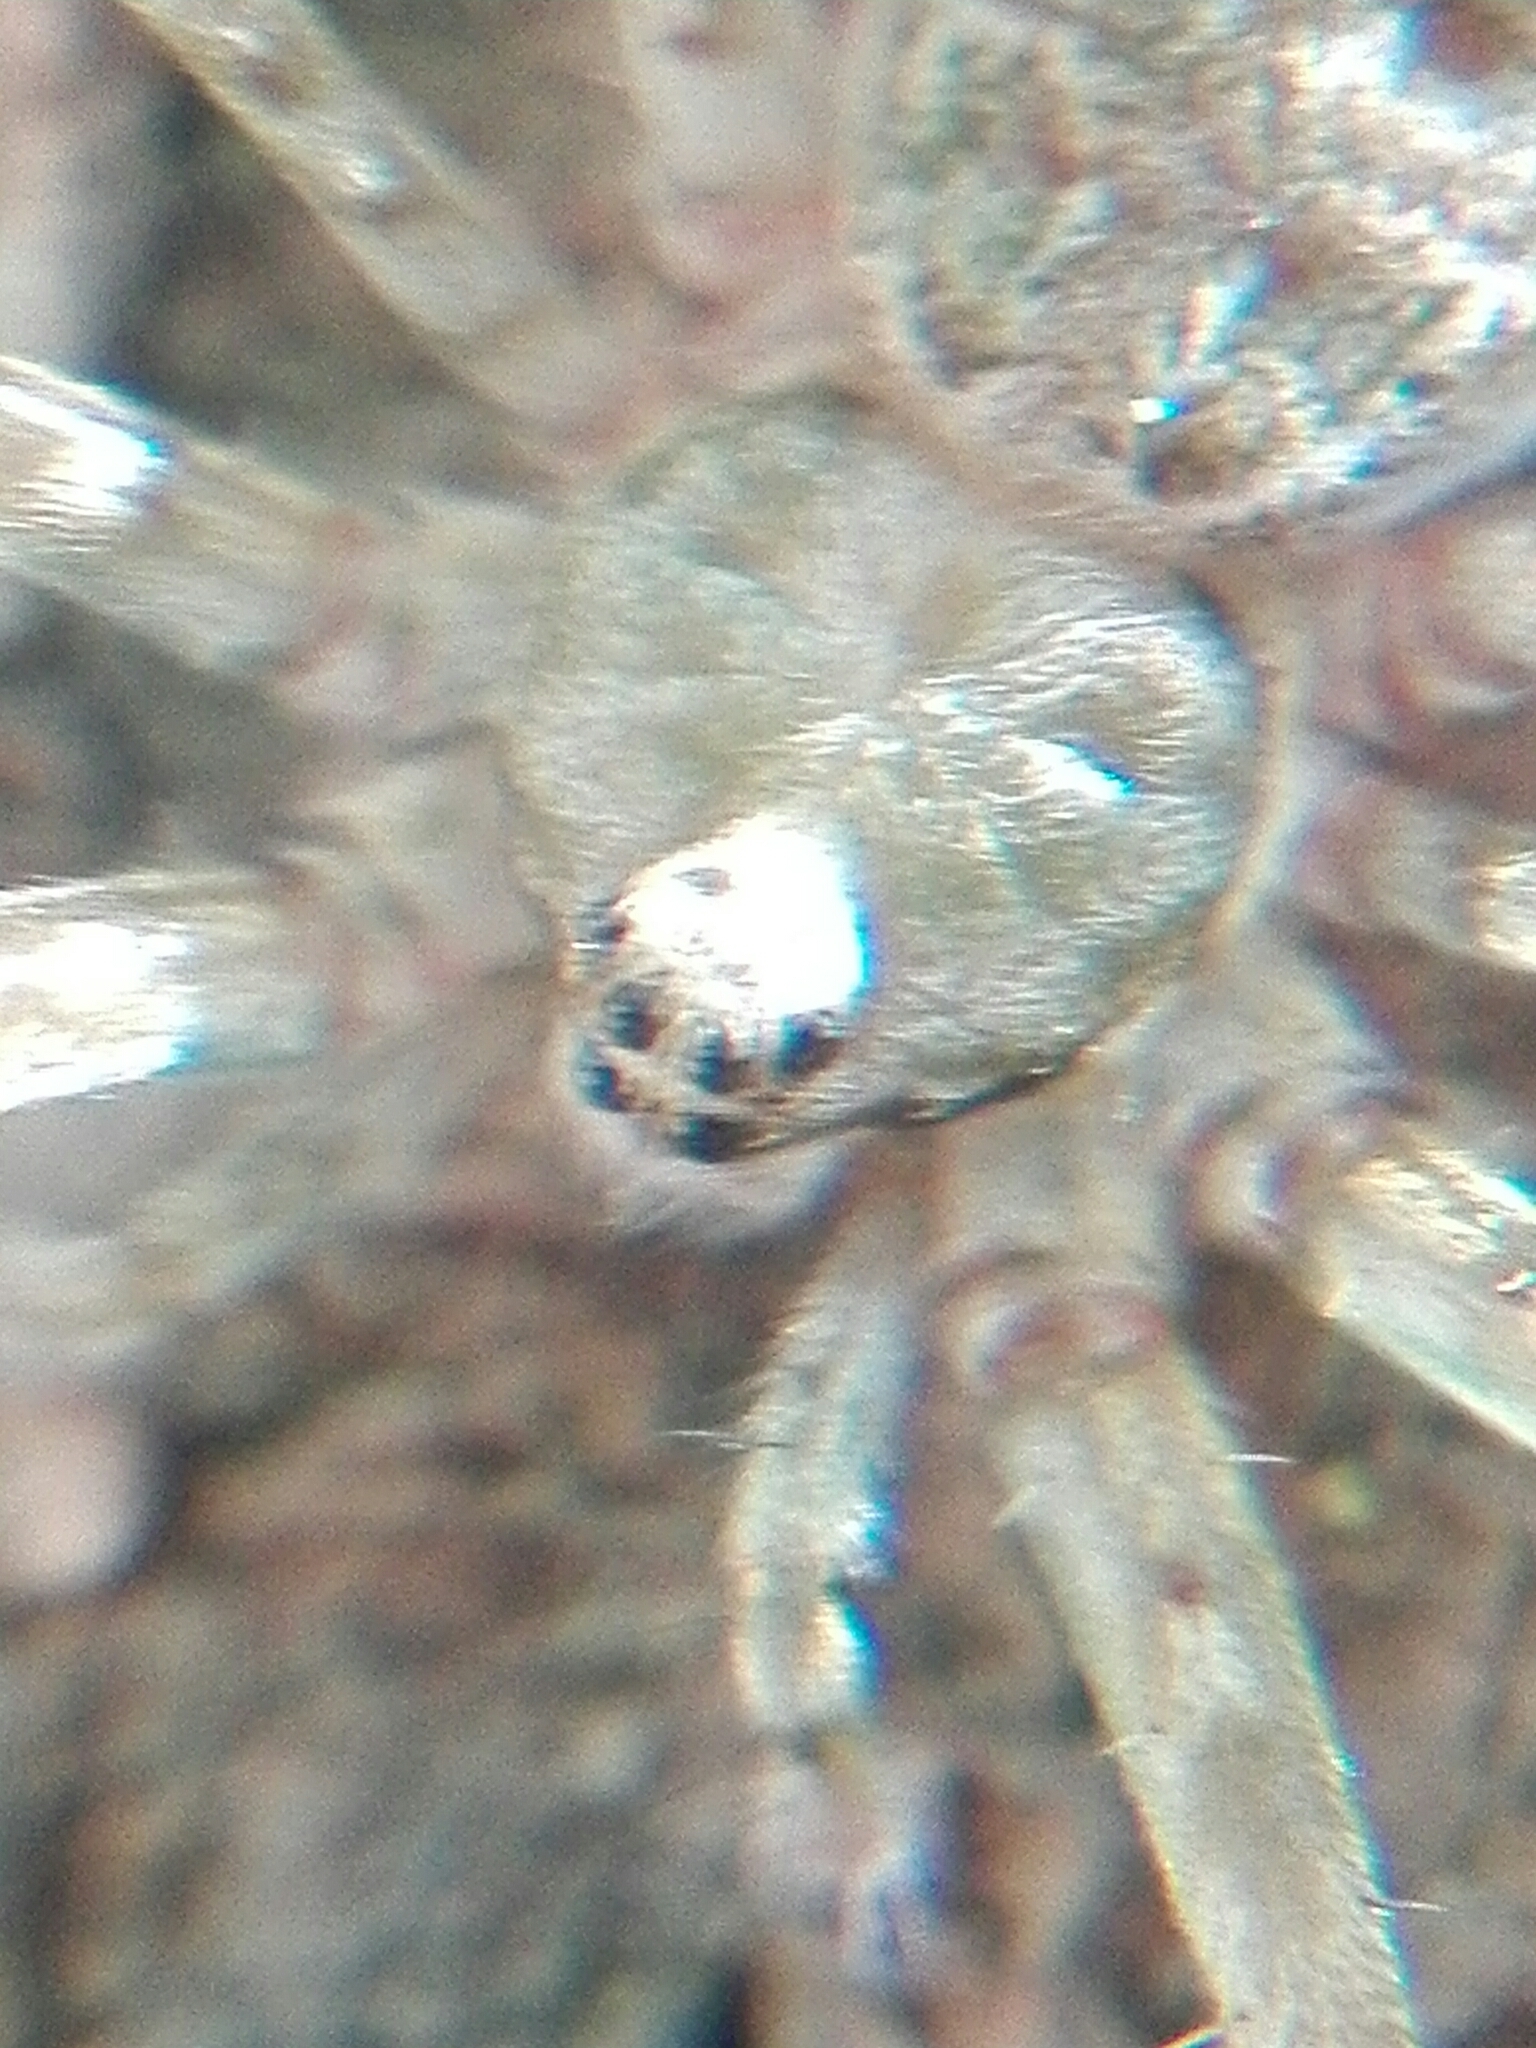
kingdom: Animalia
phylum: Arthropoda
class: Arachnida
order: Araneae
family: Hersiliidae
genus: Neotama
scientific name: Neotama mexicana
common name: Tree trunk spiders
